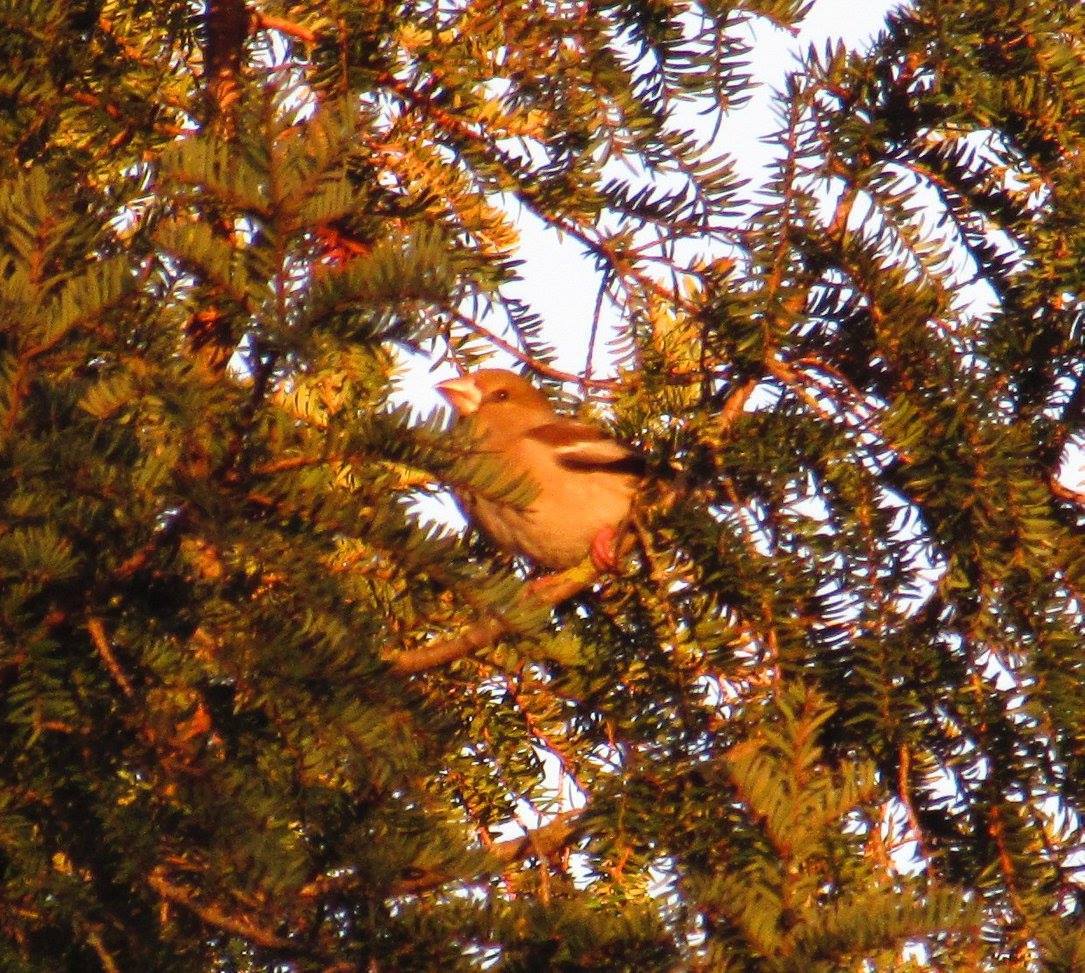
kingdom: Animalia
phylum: Chordata
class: Aves
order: Passeriformes
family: Fringillidae
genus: Coccothraustes
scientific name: Coccothraustes coccothraustes
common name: Hawfinch
